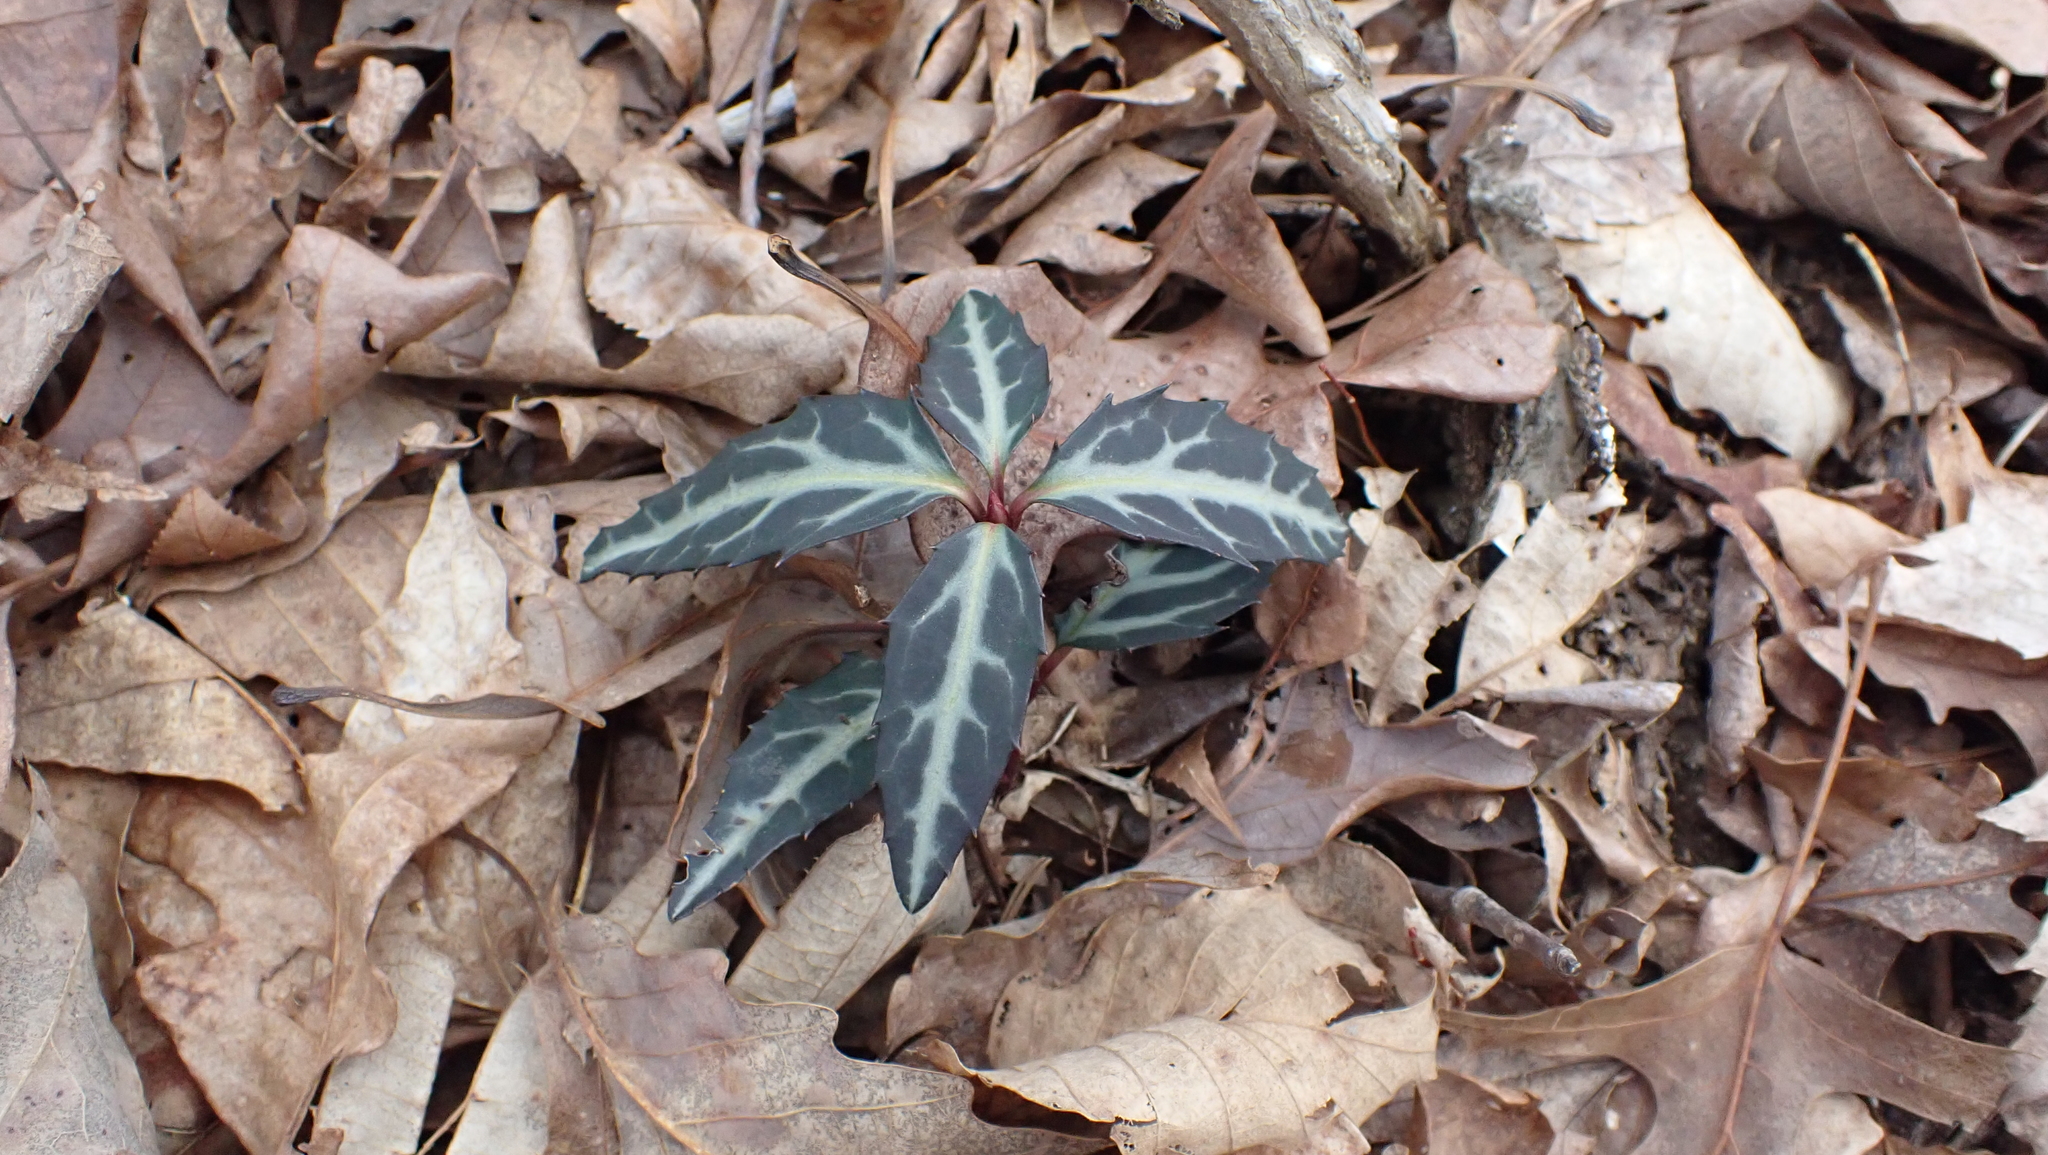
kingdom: Plantae
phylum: Tracheophyta
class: Magnoliopsida
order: Ericales
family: Ericaceae
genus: Chimaphila
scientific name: Chimaphila maculata
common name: Spotted pipsissewa
